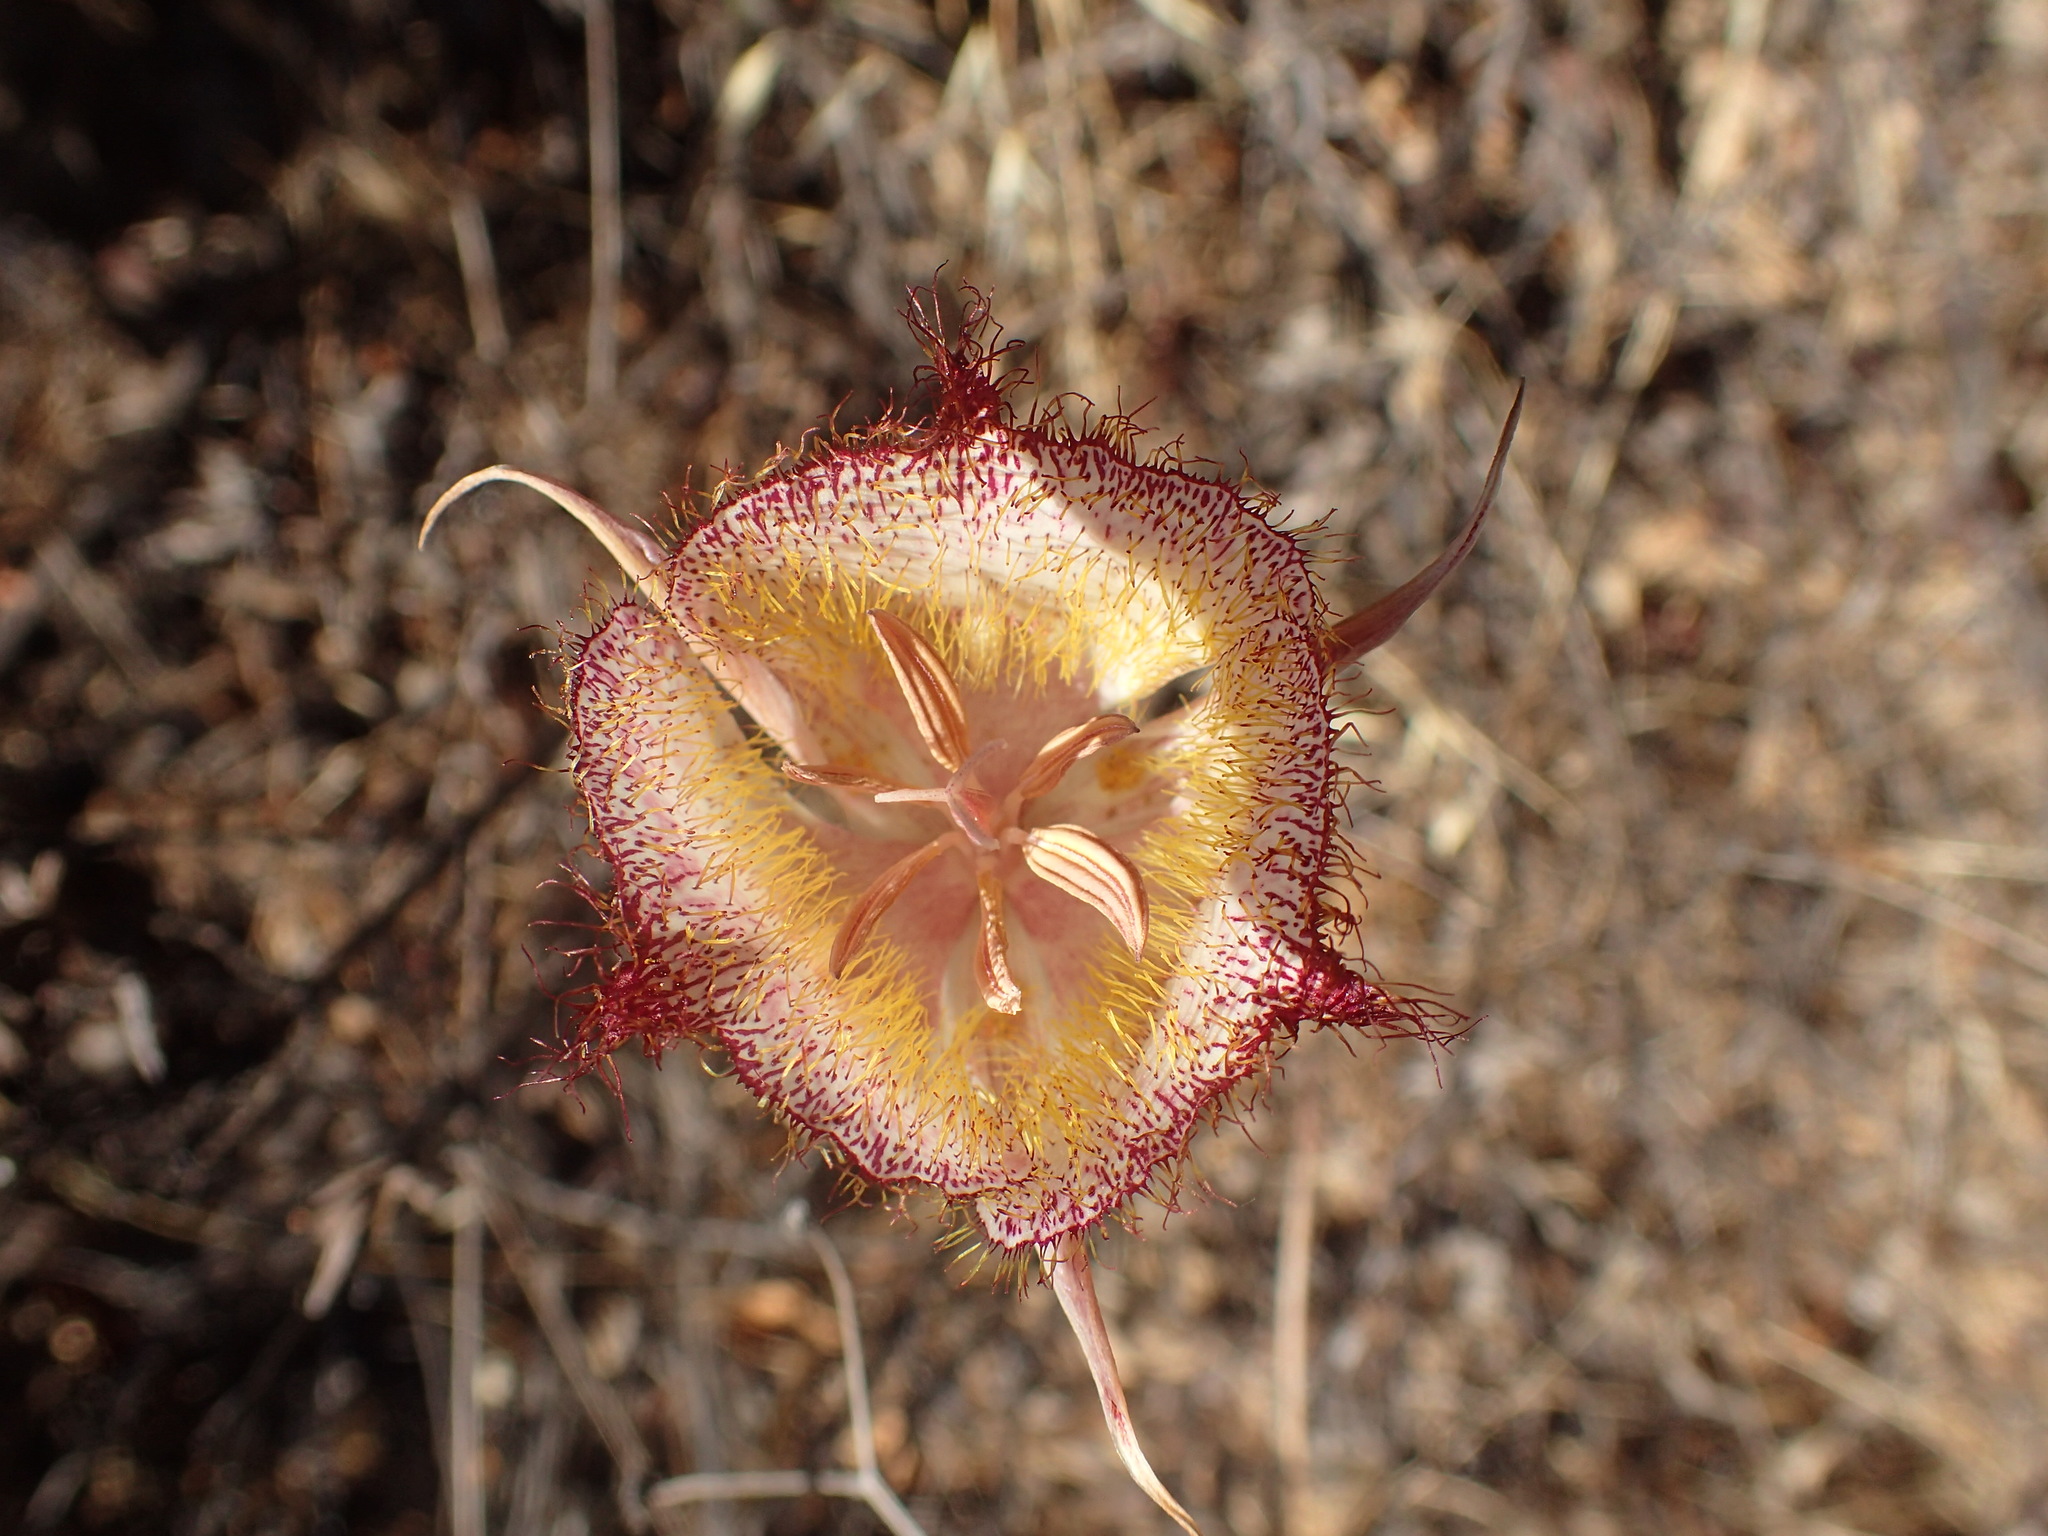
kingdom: Plantae
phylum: Tracheophyta
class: Liliopsida
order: Liliales
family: Liliaceae
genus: Calochortus
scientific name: Calochortus fimbriatus
